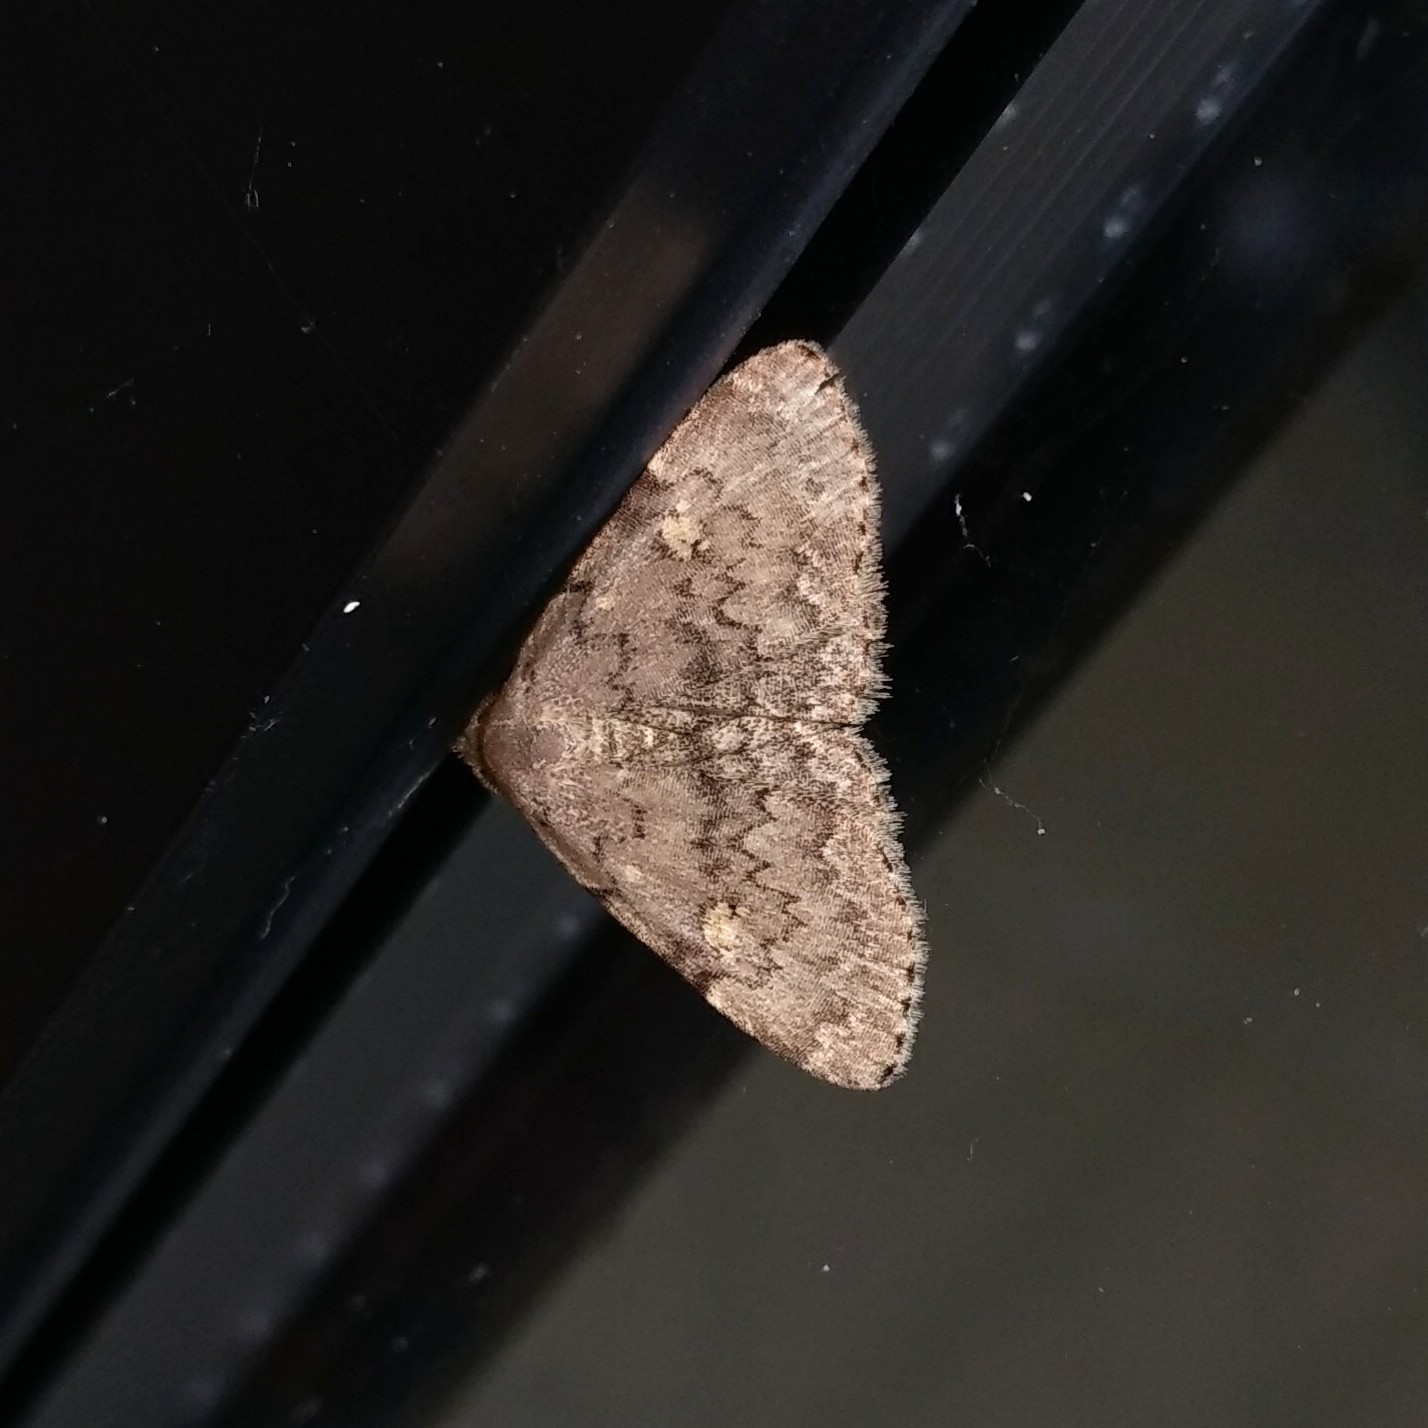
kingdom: Animalia
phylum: Arthropoda
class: Insecta
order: Lepidoptera
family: Erebidae
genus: Idia
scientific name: Idia aemula
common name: Common idia moth
